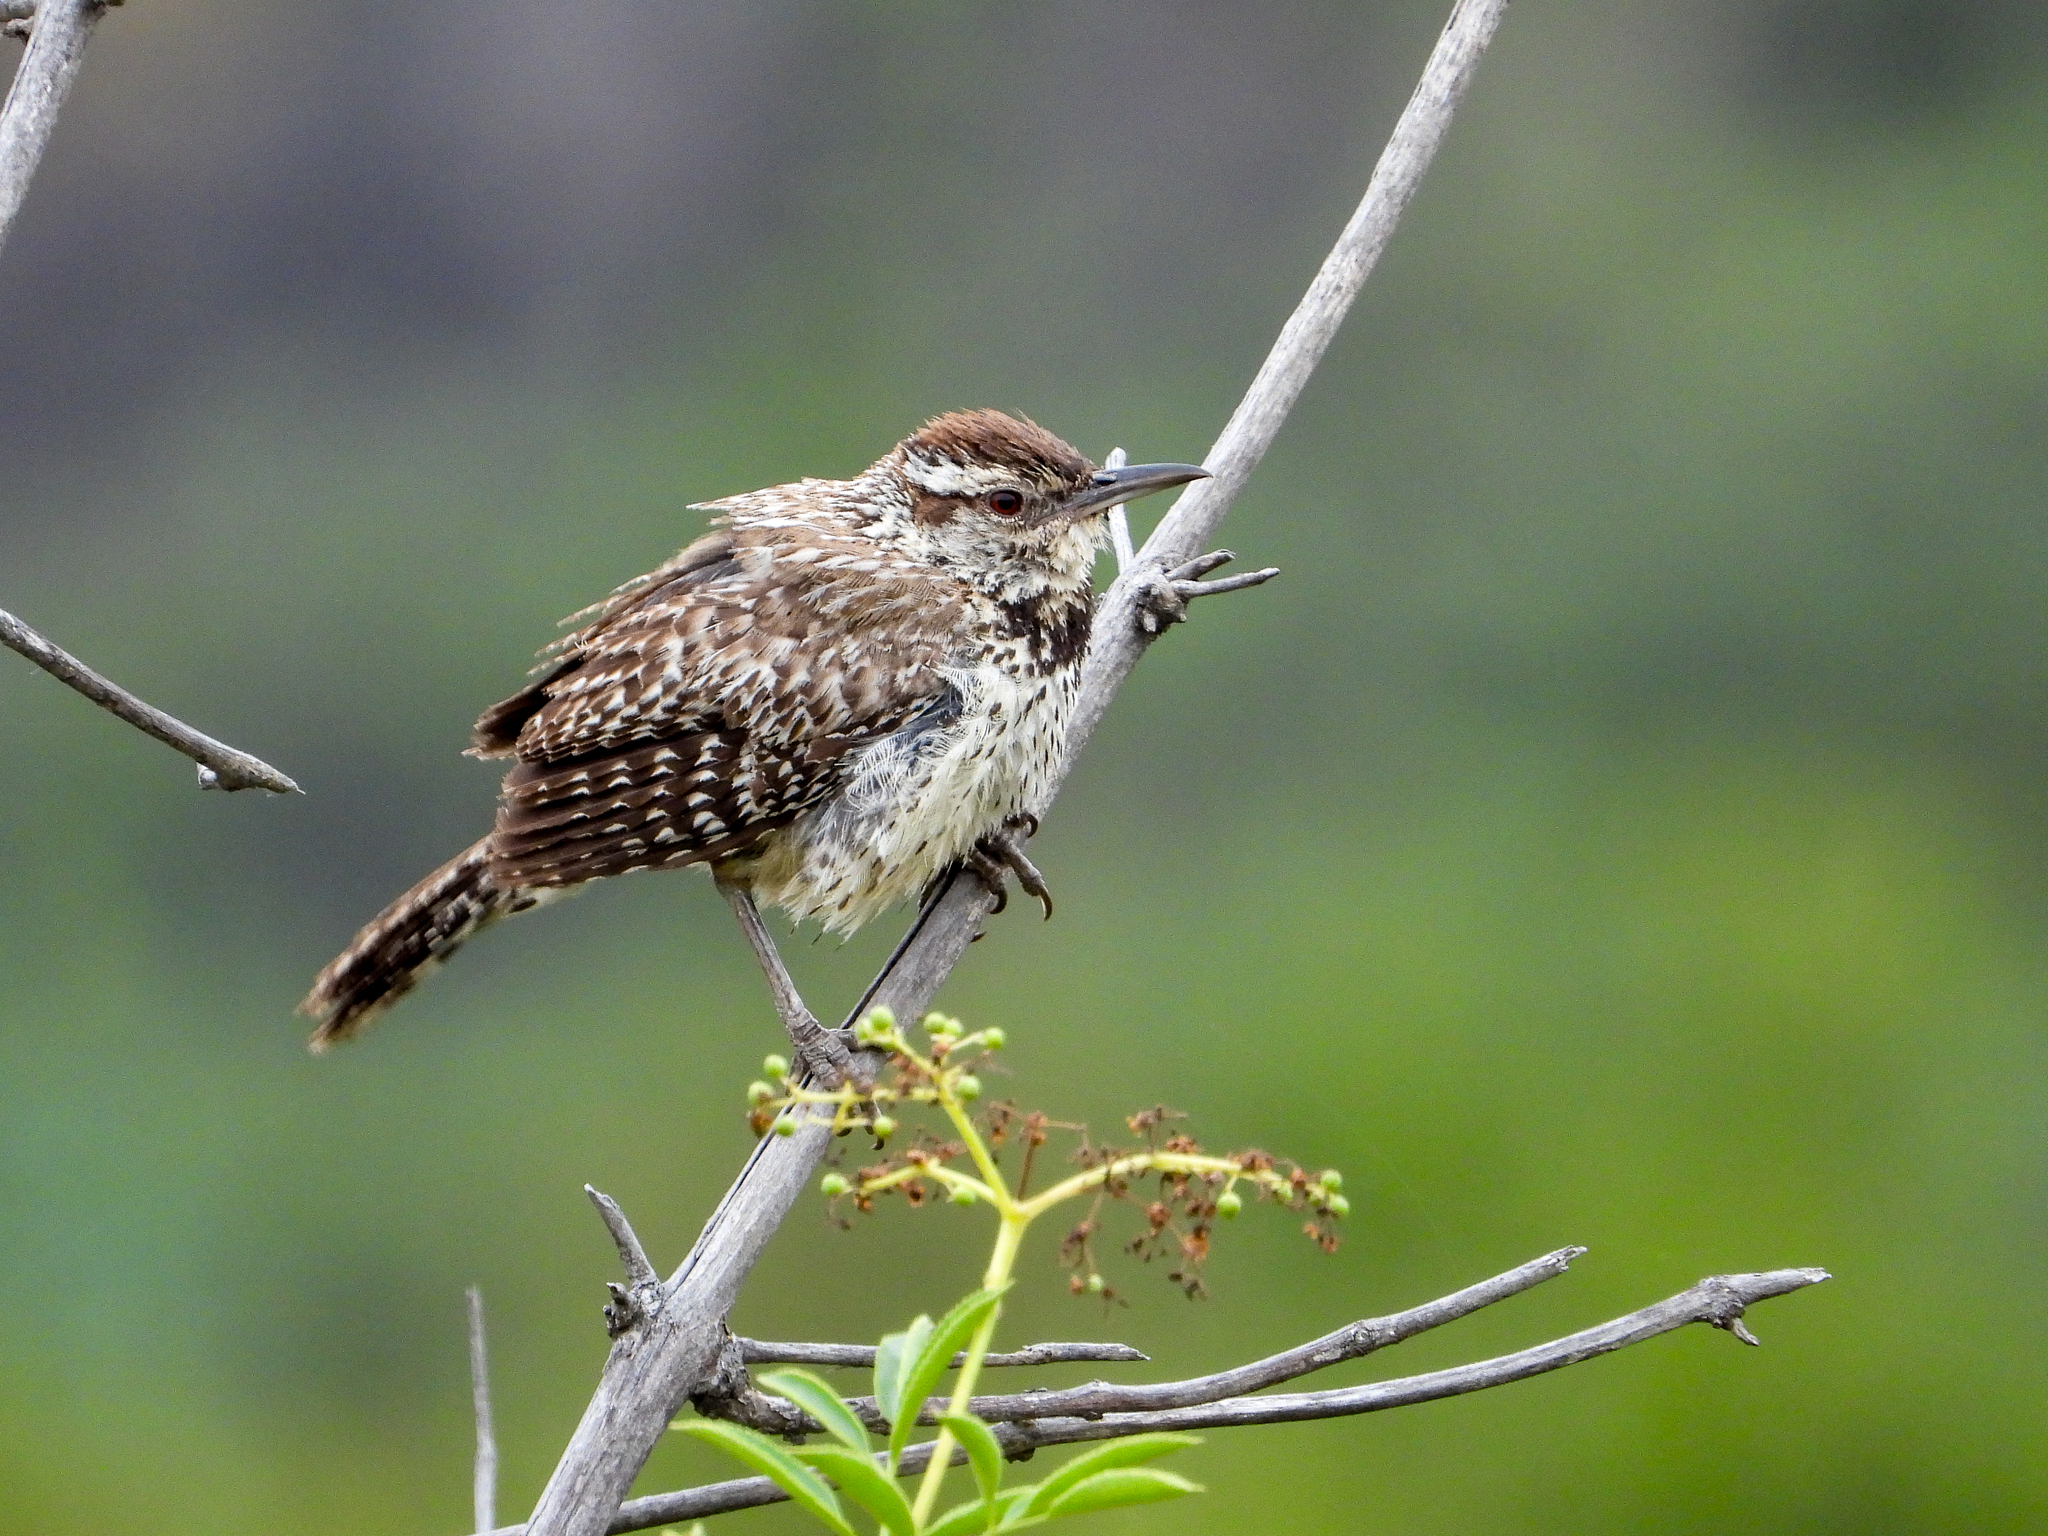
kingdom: Animalia
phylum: Chordata
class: Aves
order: Passeriformes
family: Troglodytidae
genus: Campylorhynchus
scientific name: Campylorhynchus brunneicapillus
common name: Cactus wren
